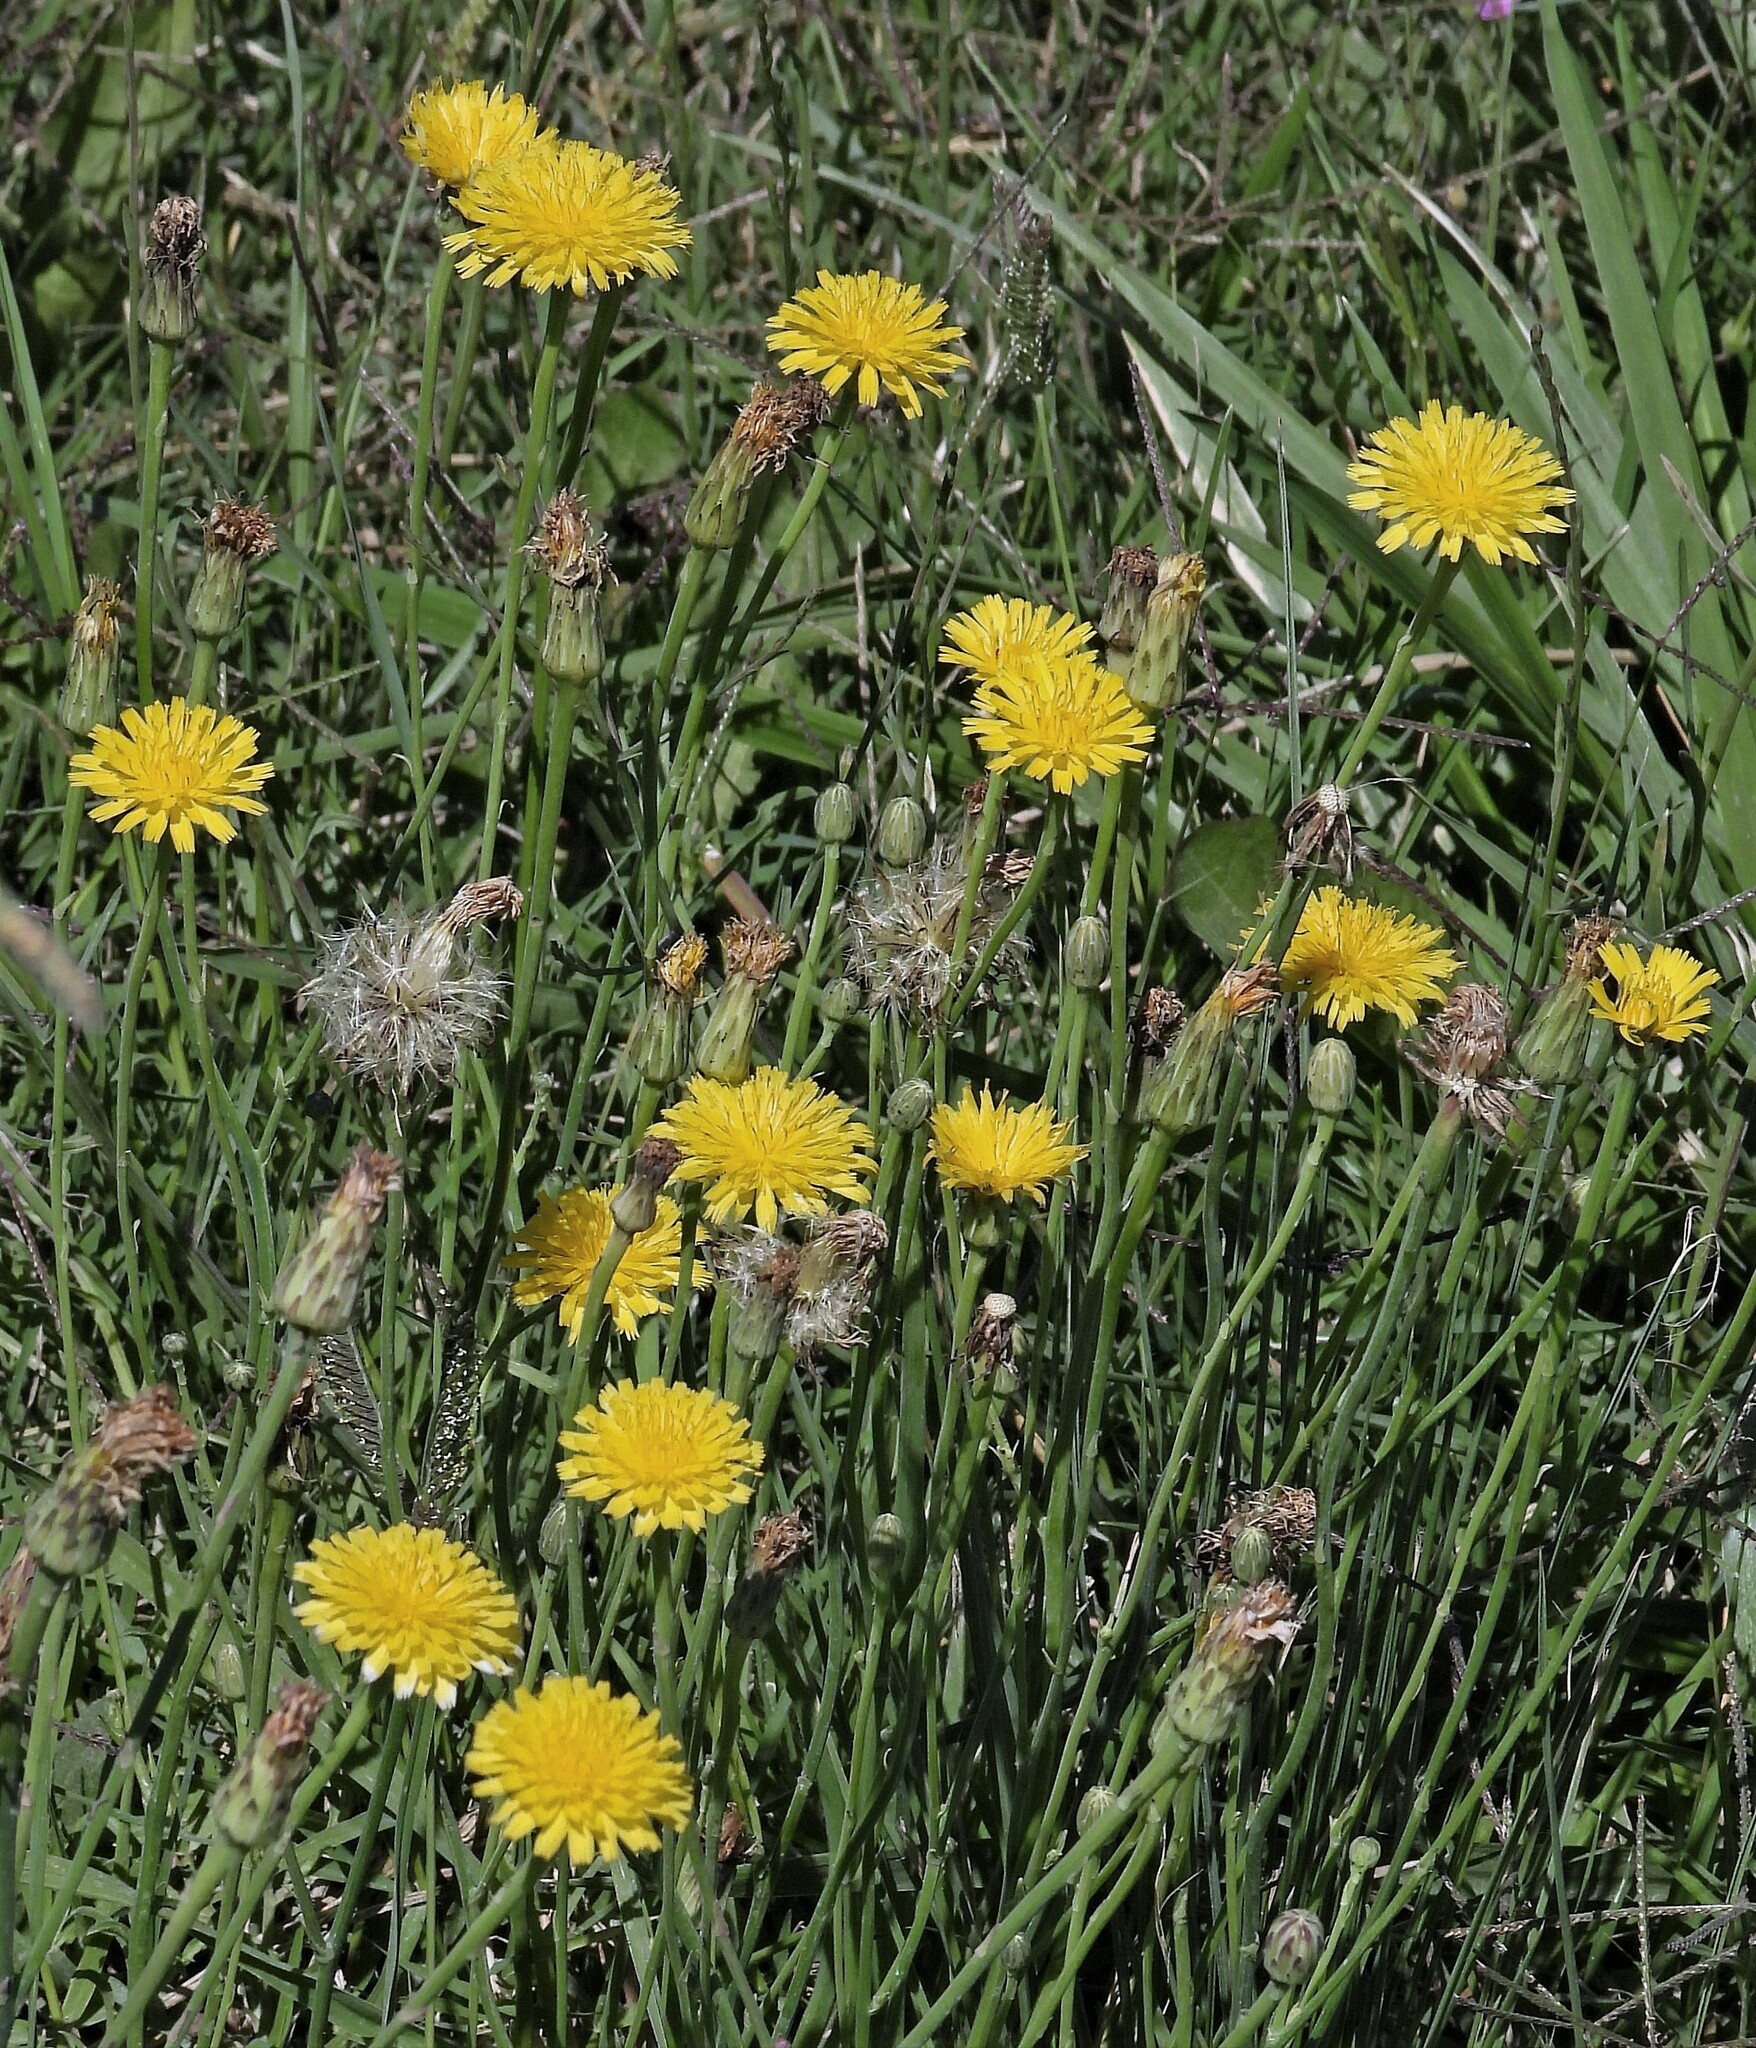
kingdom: Plantae
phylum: Tracheophyta
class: Magnoliopsida
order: Asterales
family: Asteraceae
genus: Hypochaeris
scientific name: Hypochaeris radicata
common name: Flatweed
